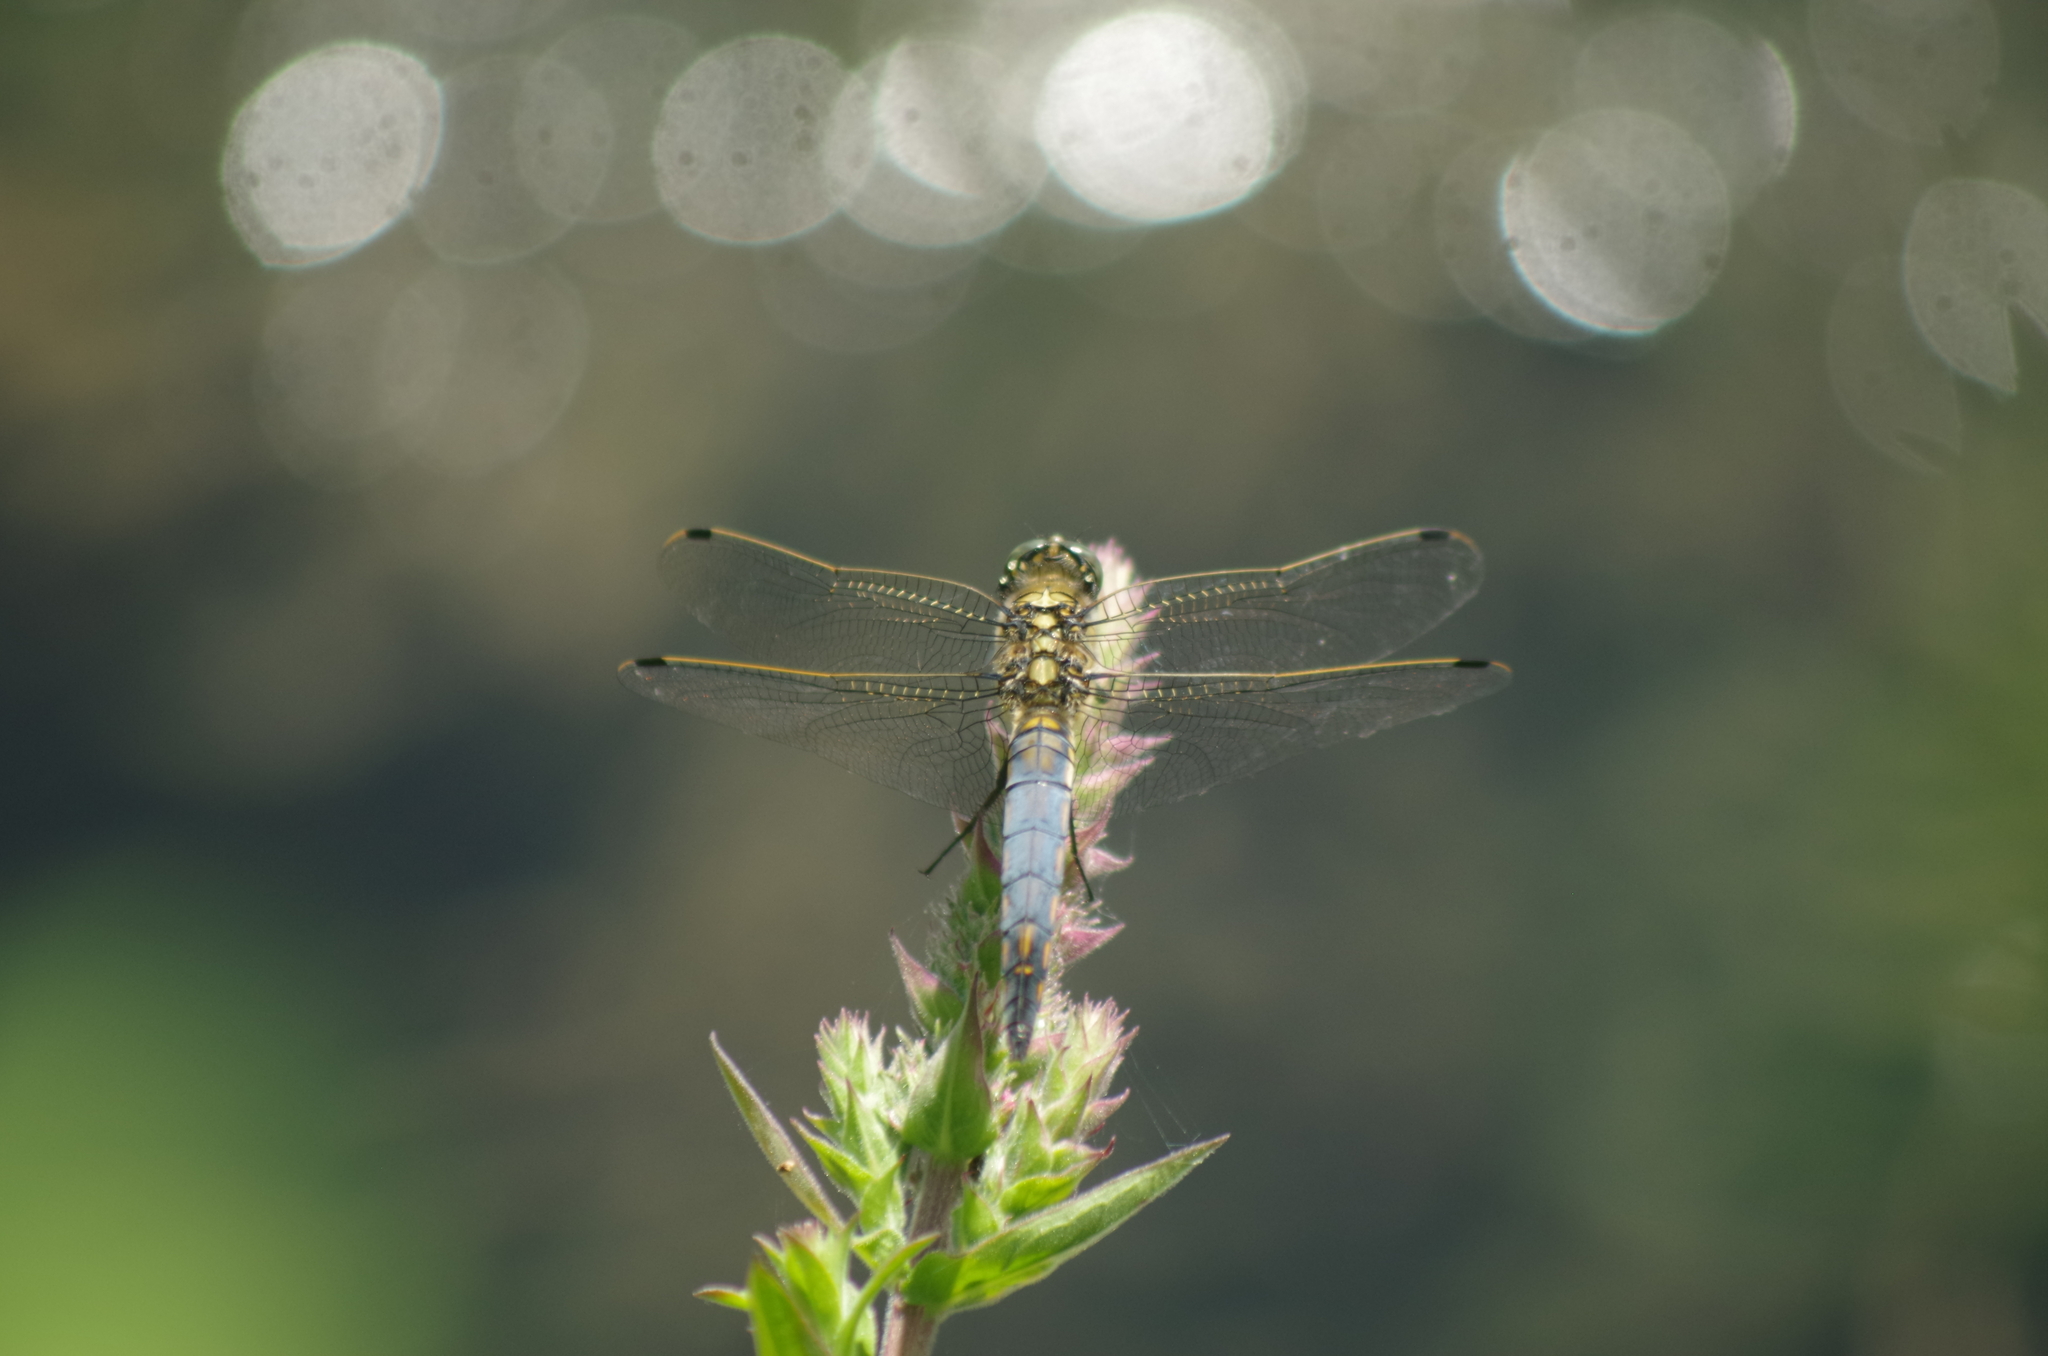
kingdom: Animalia
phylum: Arthropoda
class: Insecta
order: Odonata
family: Libellulidae
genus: Orthetrum
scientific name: Orthetrum cancellatum
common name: Black-tailed skimmer
